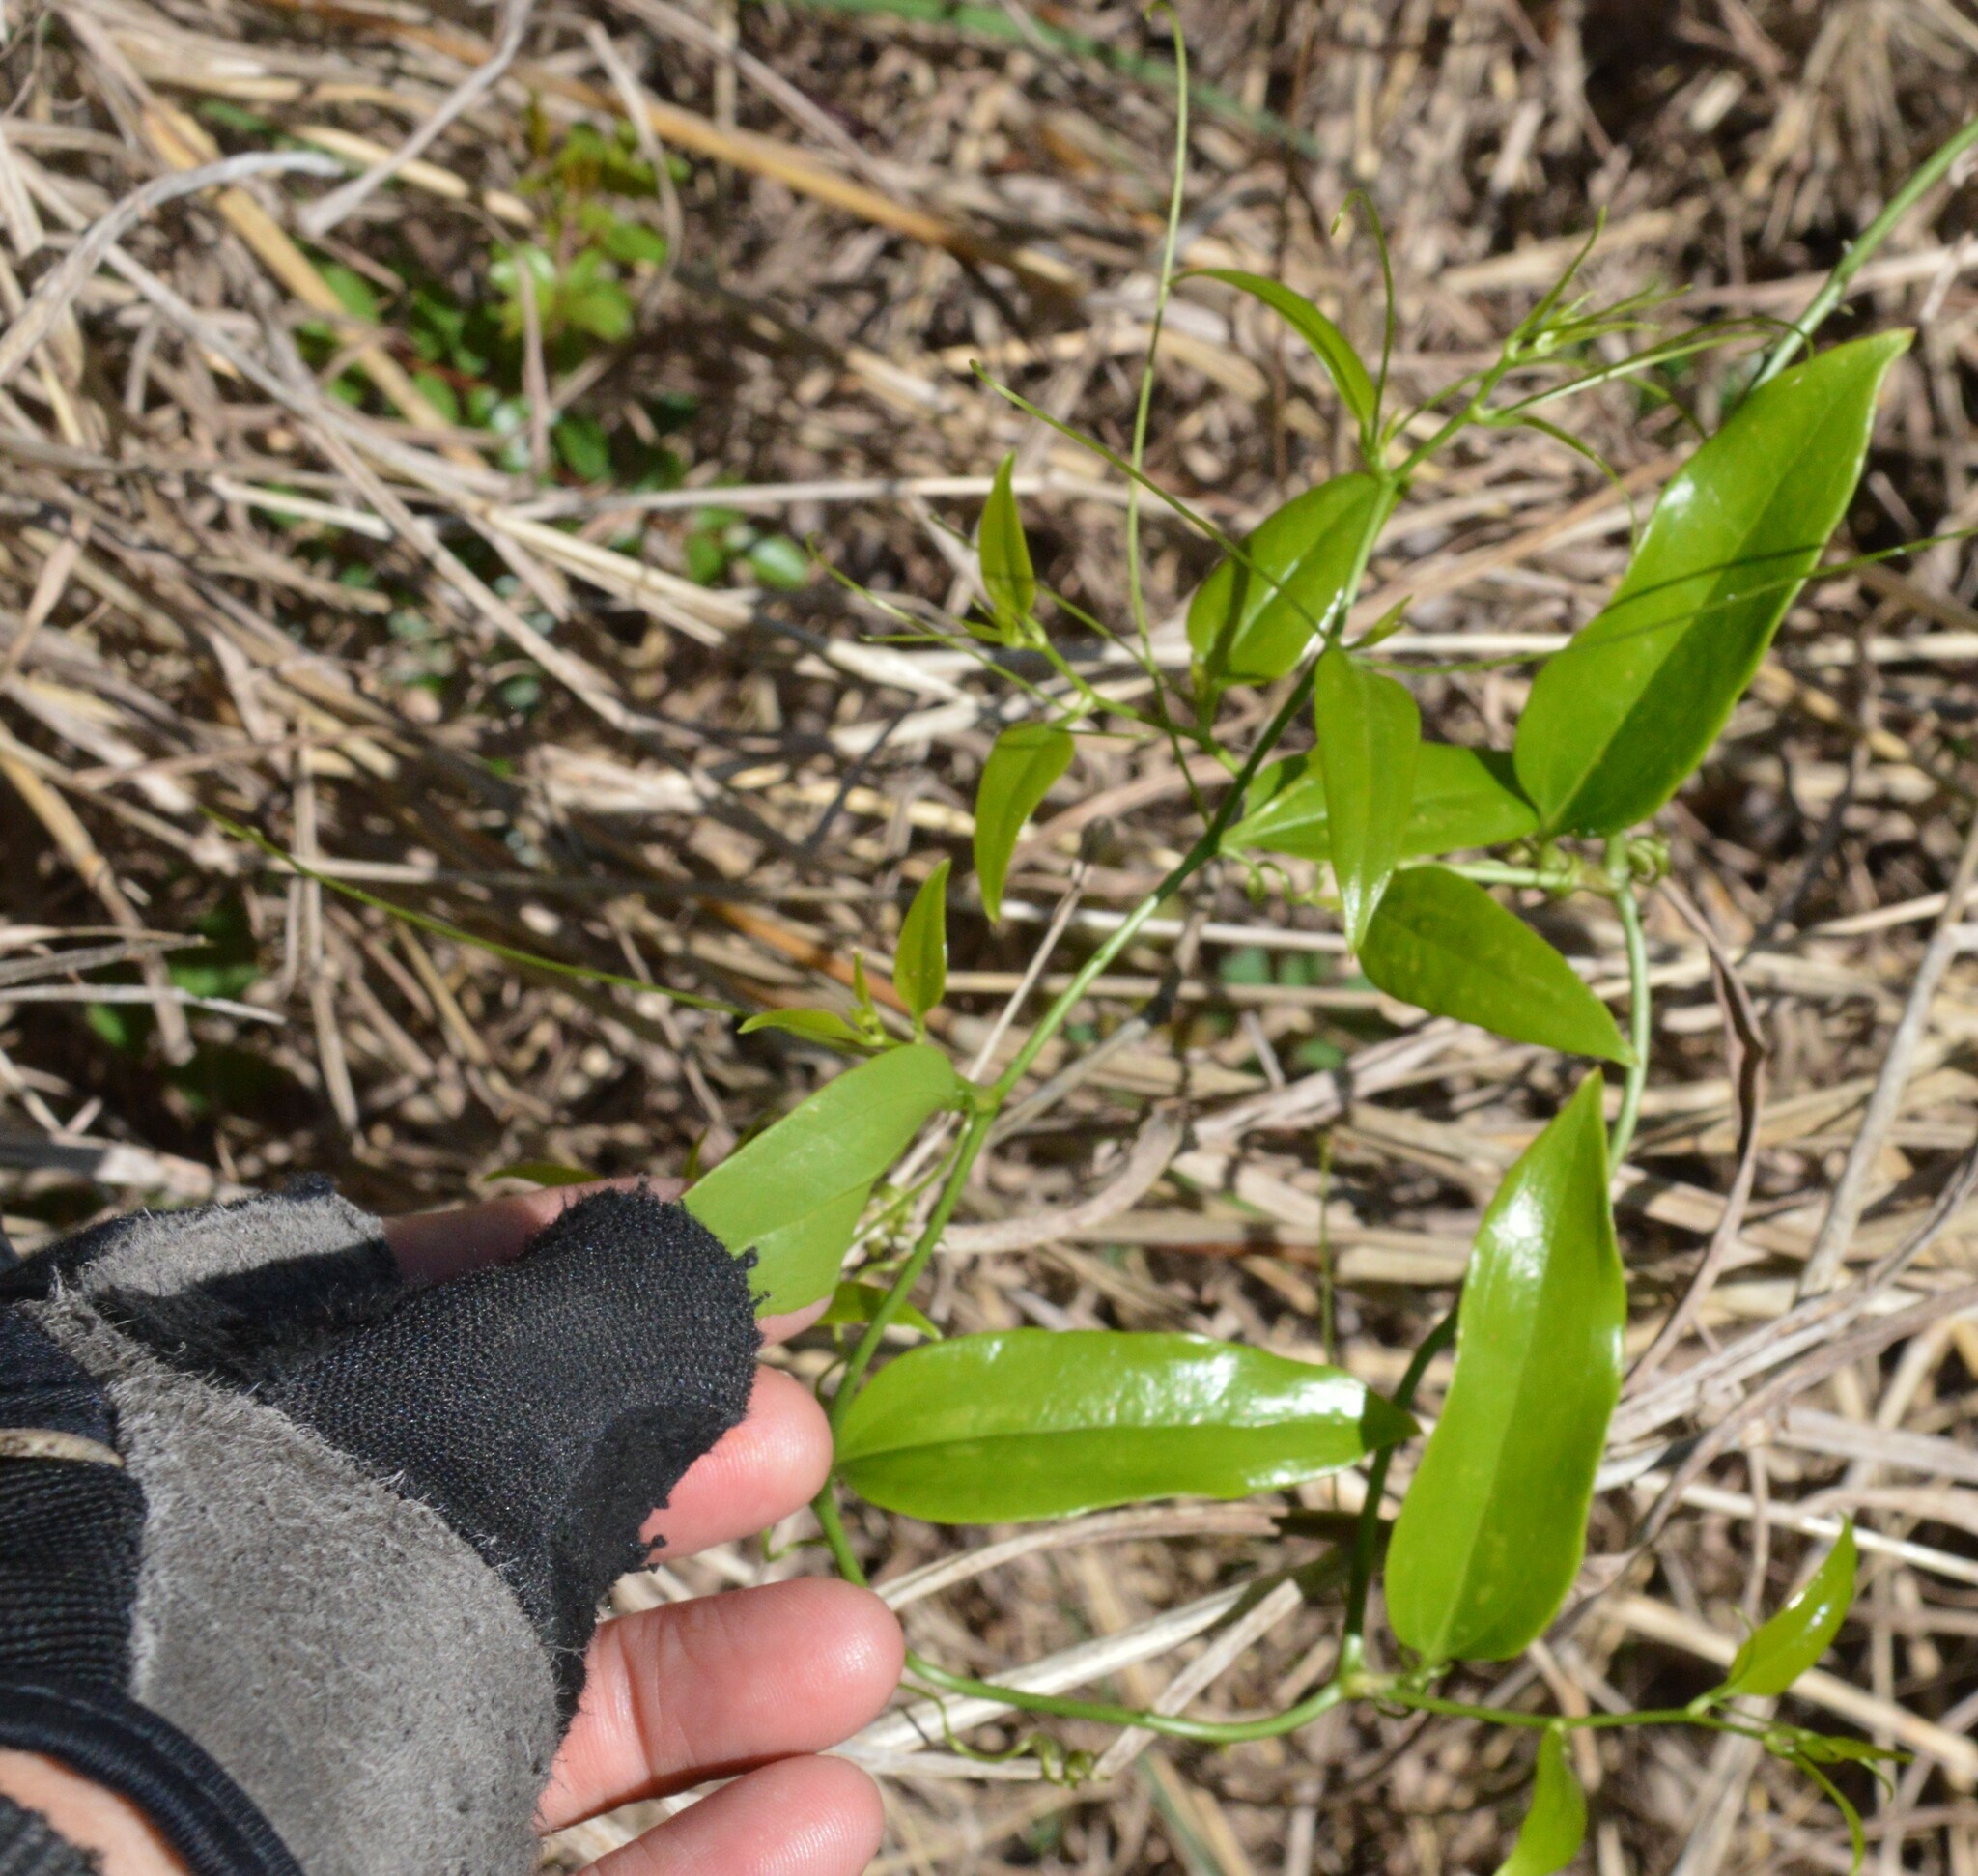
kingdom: Plantae
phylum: Tracheophyta
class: Liliopsida
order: Liliales
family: Smilacaceae
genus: Smilax
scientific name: Smilax maritima
